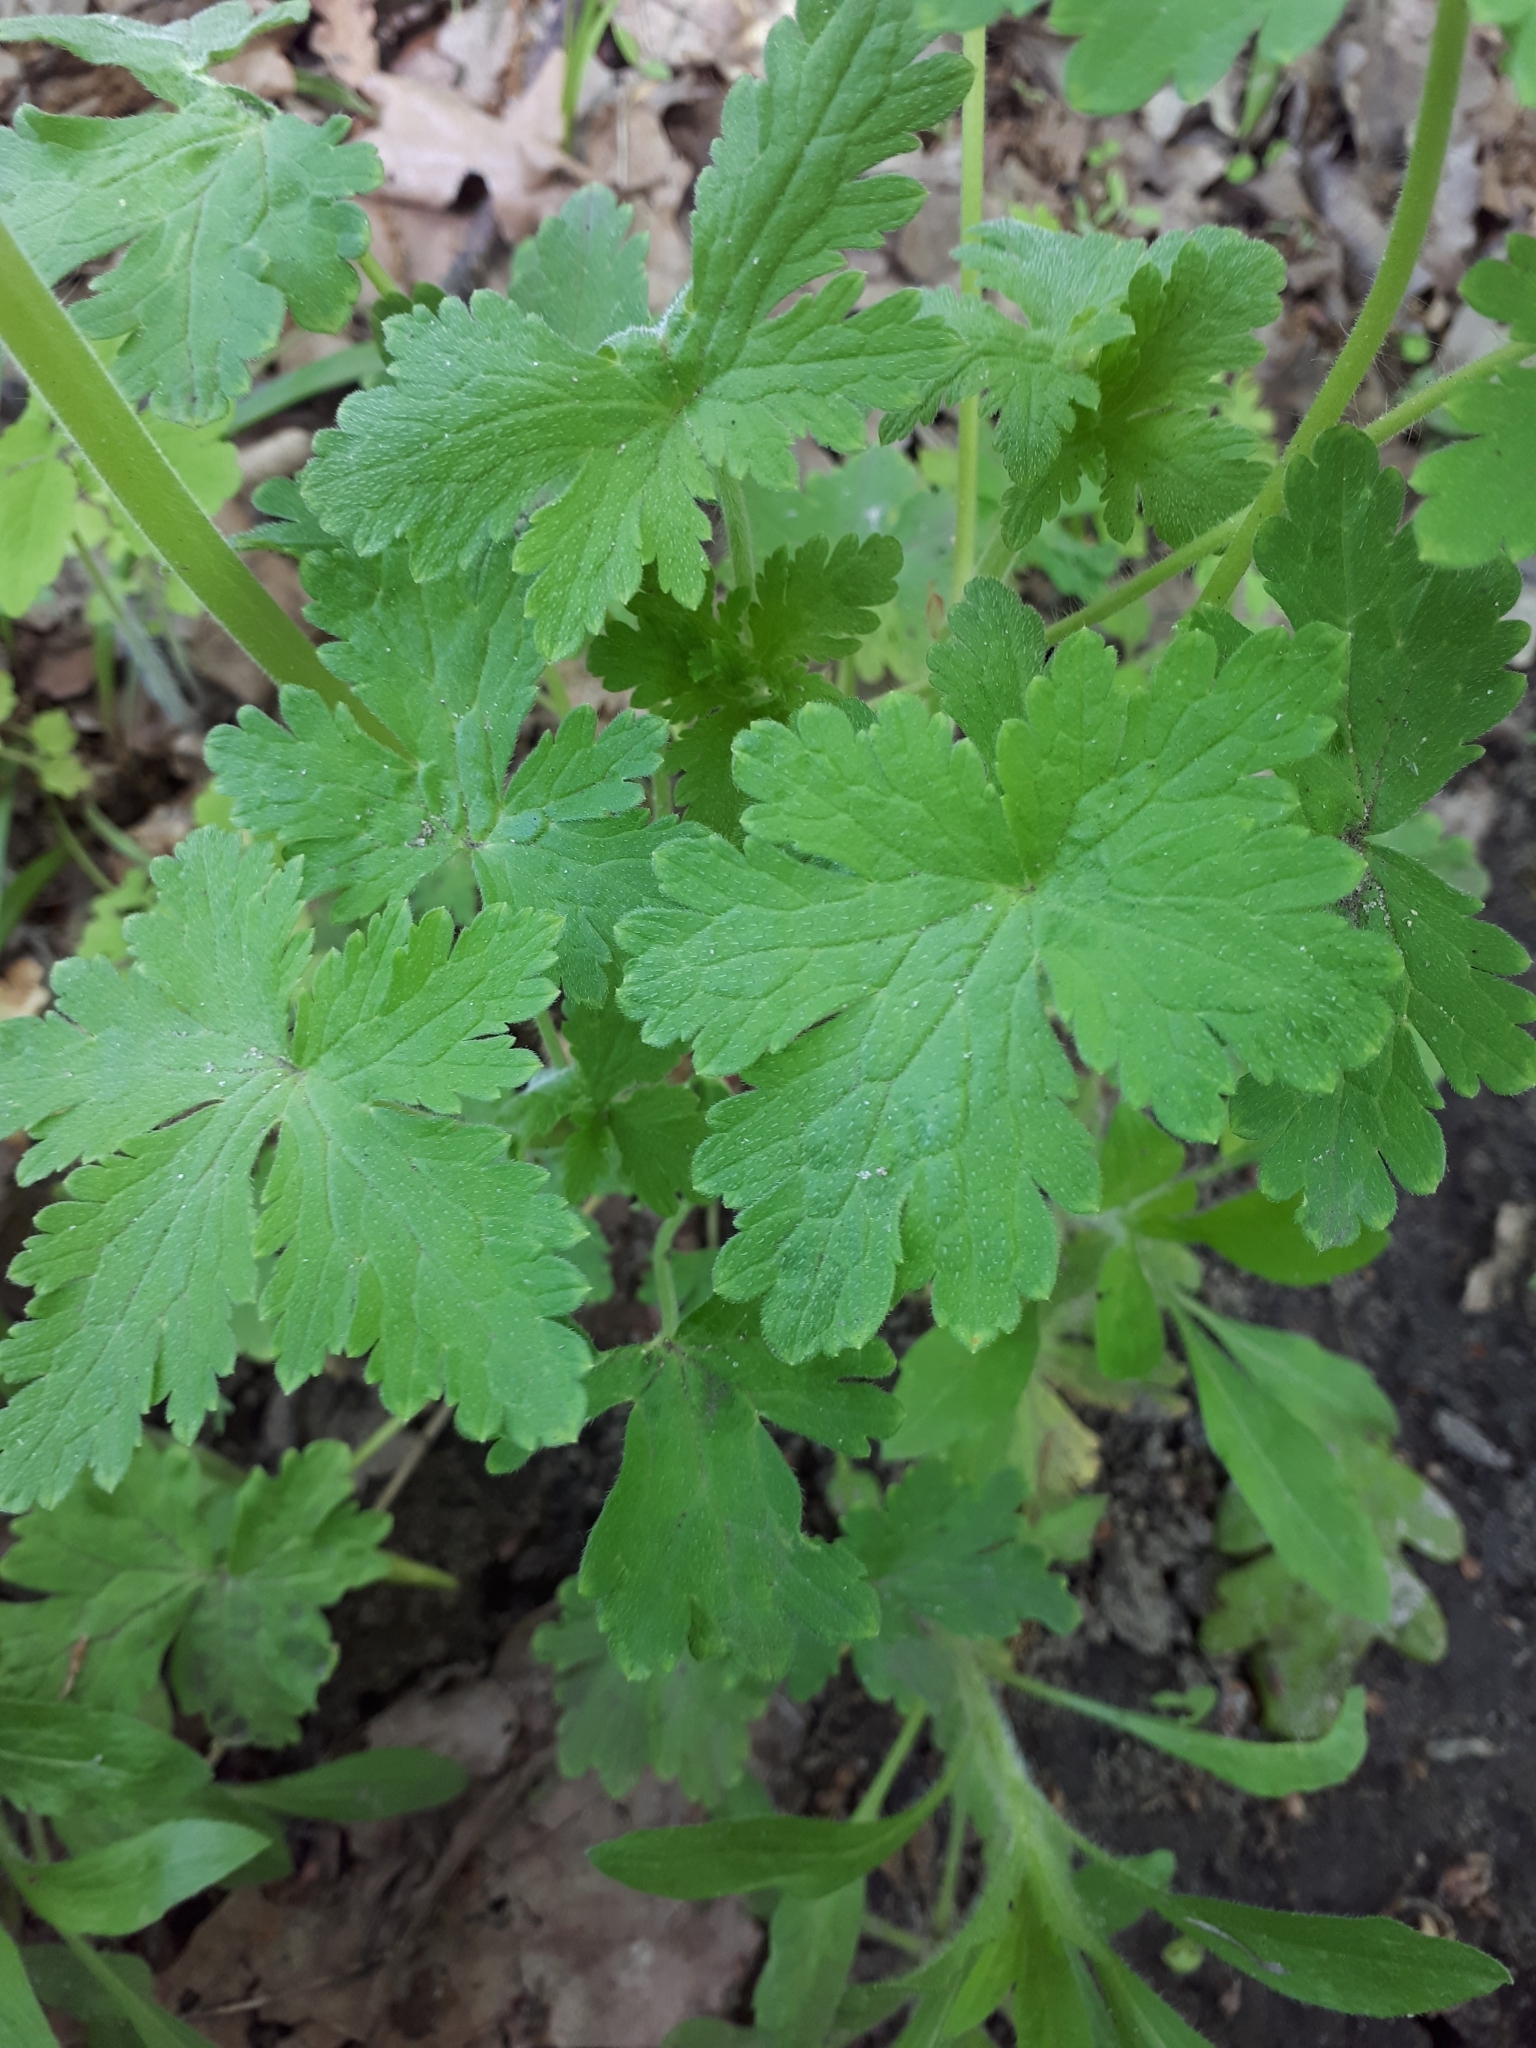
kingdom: Plantae
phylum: Tracheophyta
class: Magnoliopsida
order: Geraniales
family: Geraniaceae
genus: Geranium
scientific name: Geranium sylvaticum
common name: Wood crane's-bill
